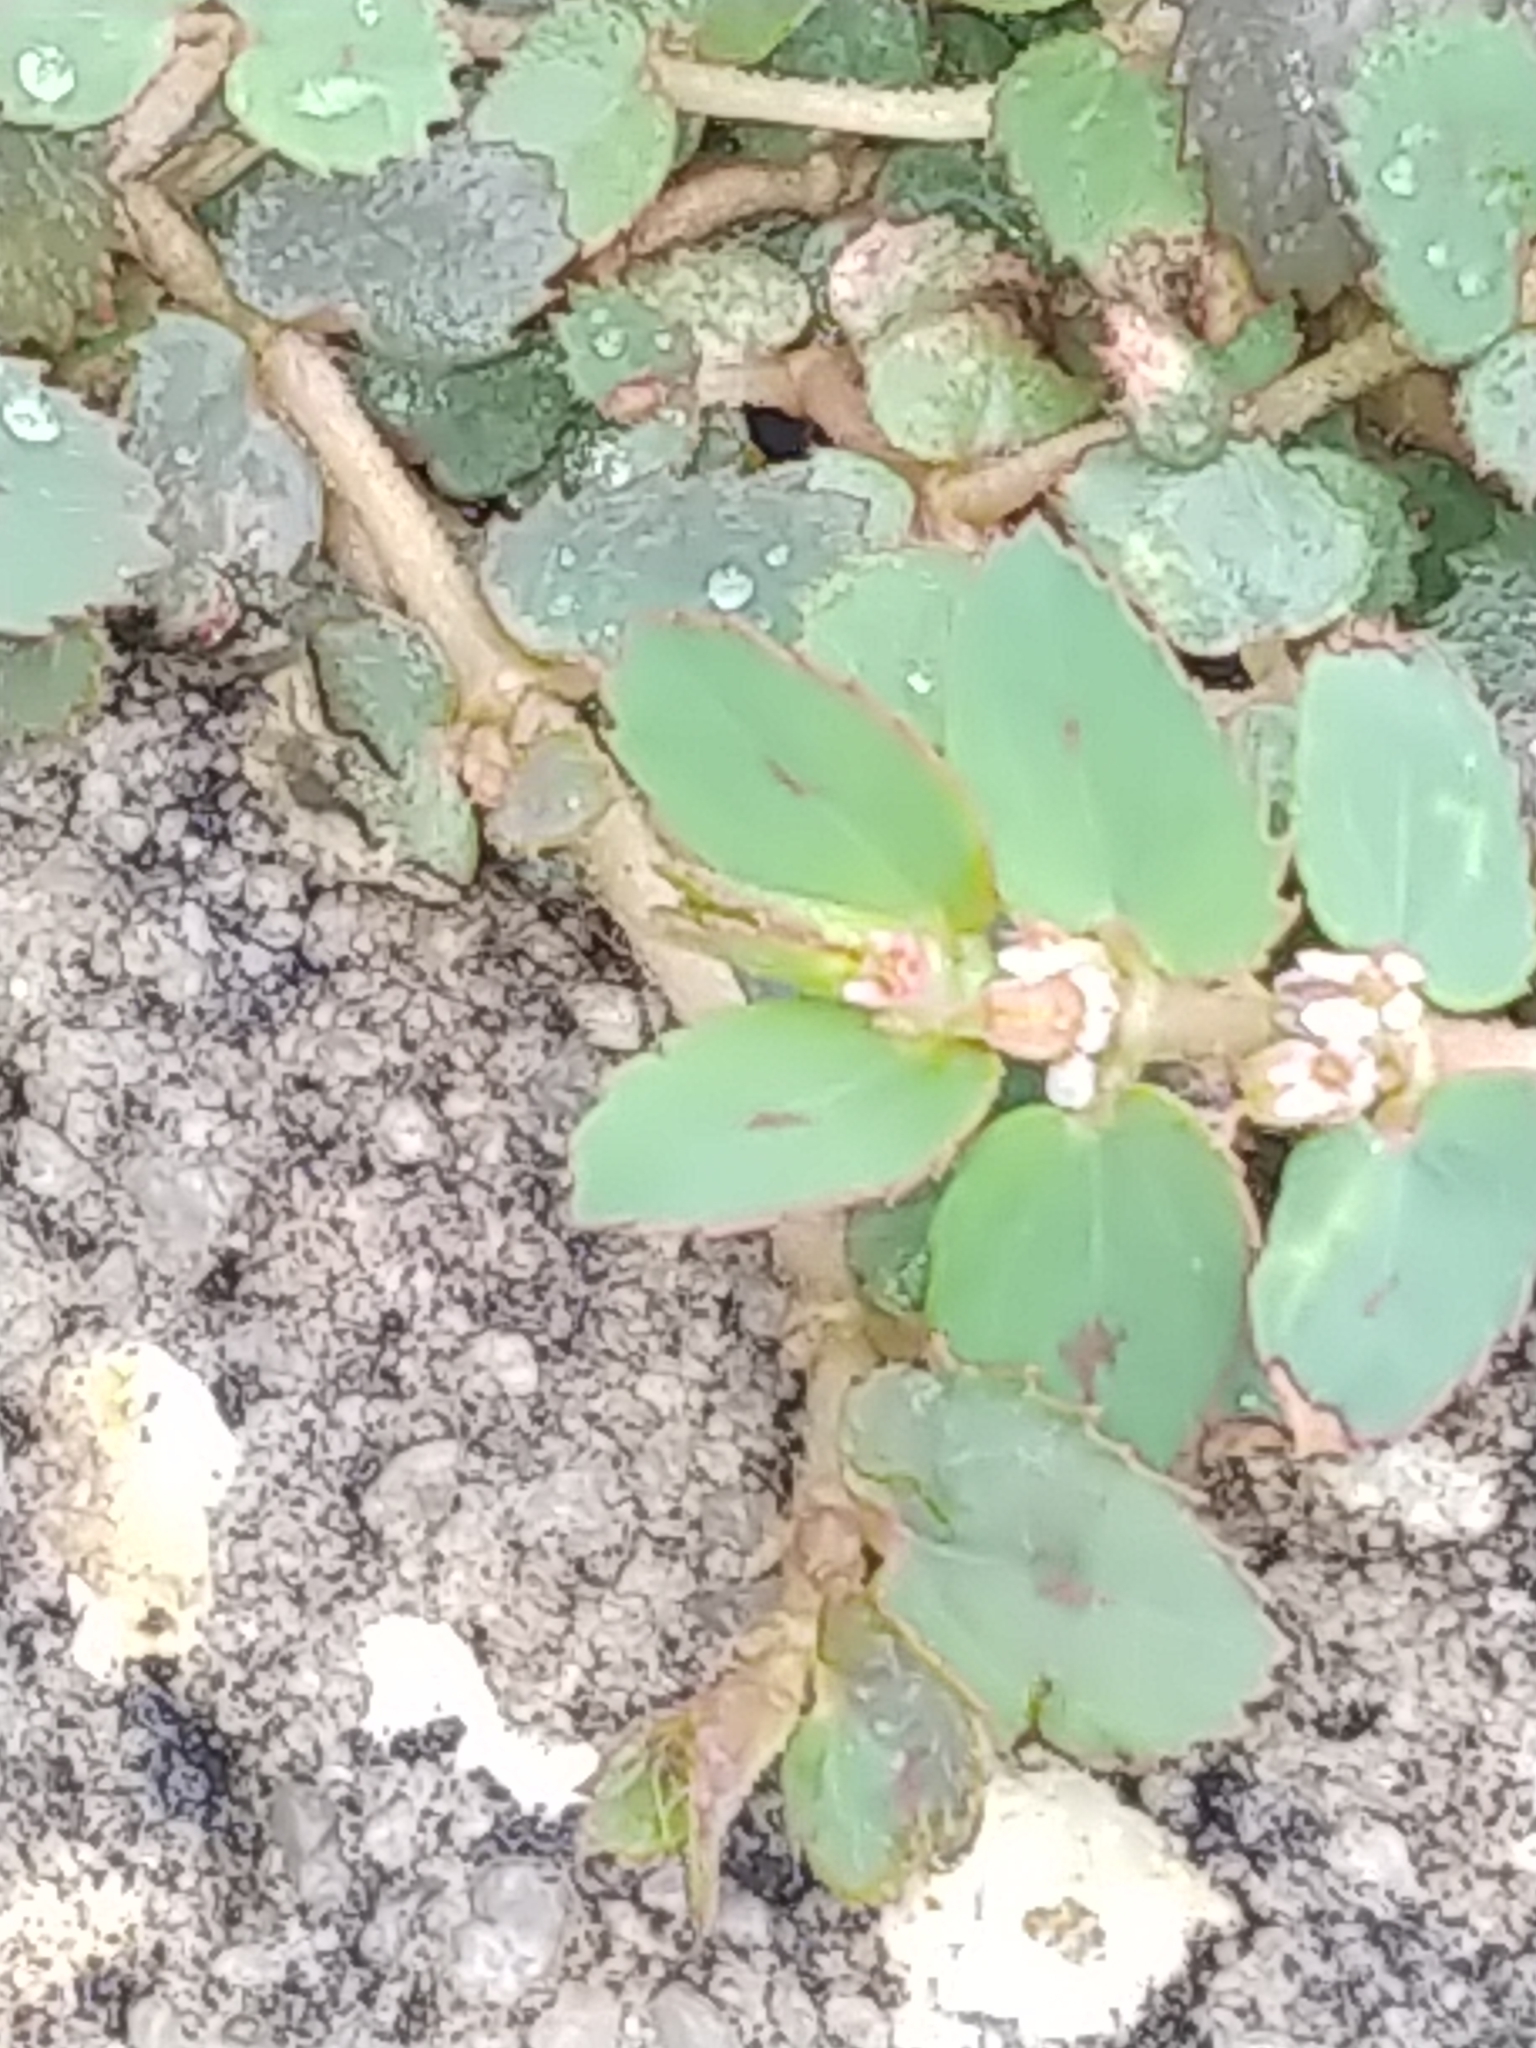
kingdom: Plantae
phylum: Tracheophyta
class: Magnoliopsida
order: Malpighiales
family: Euphorbiaceae
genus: Euphorbia
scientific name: Euphorbia thymifolia
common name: Gulf sandmat
